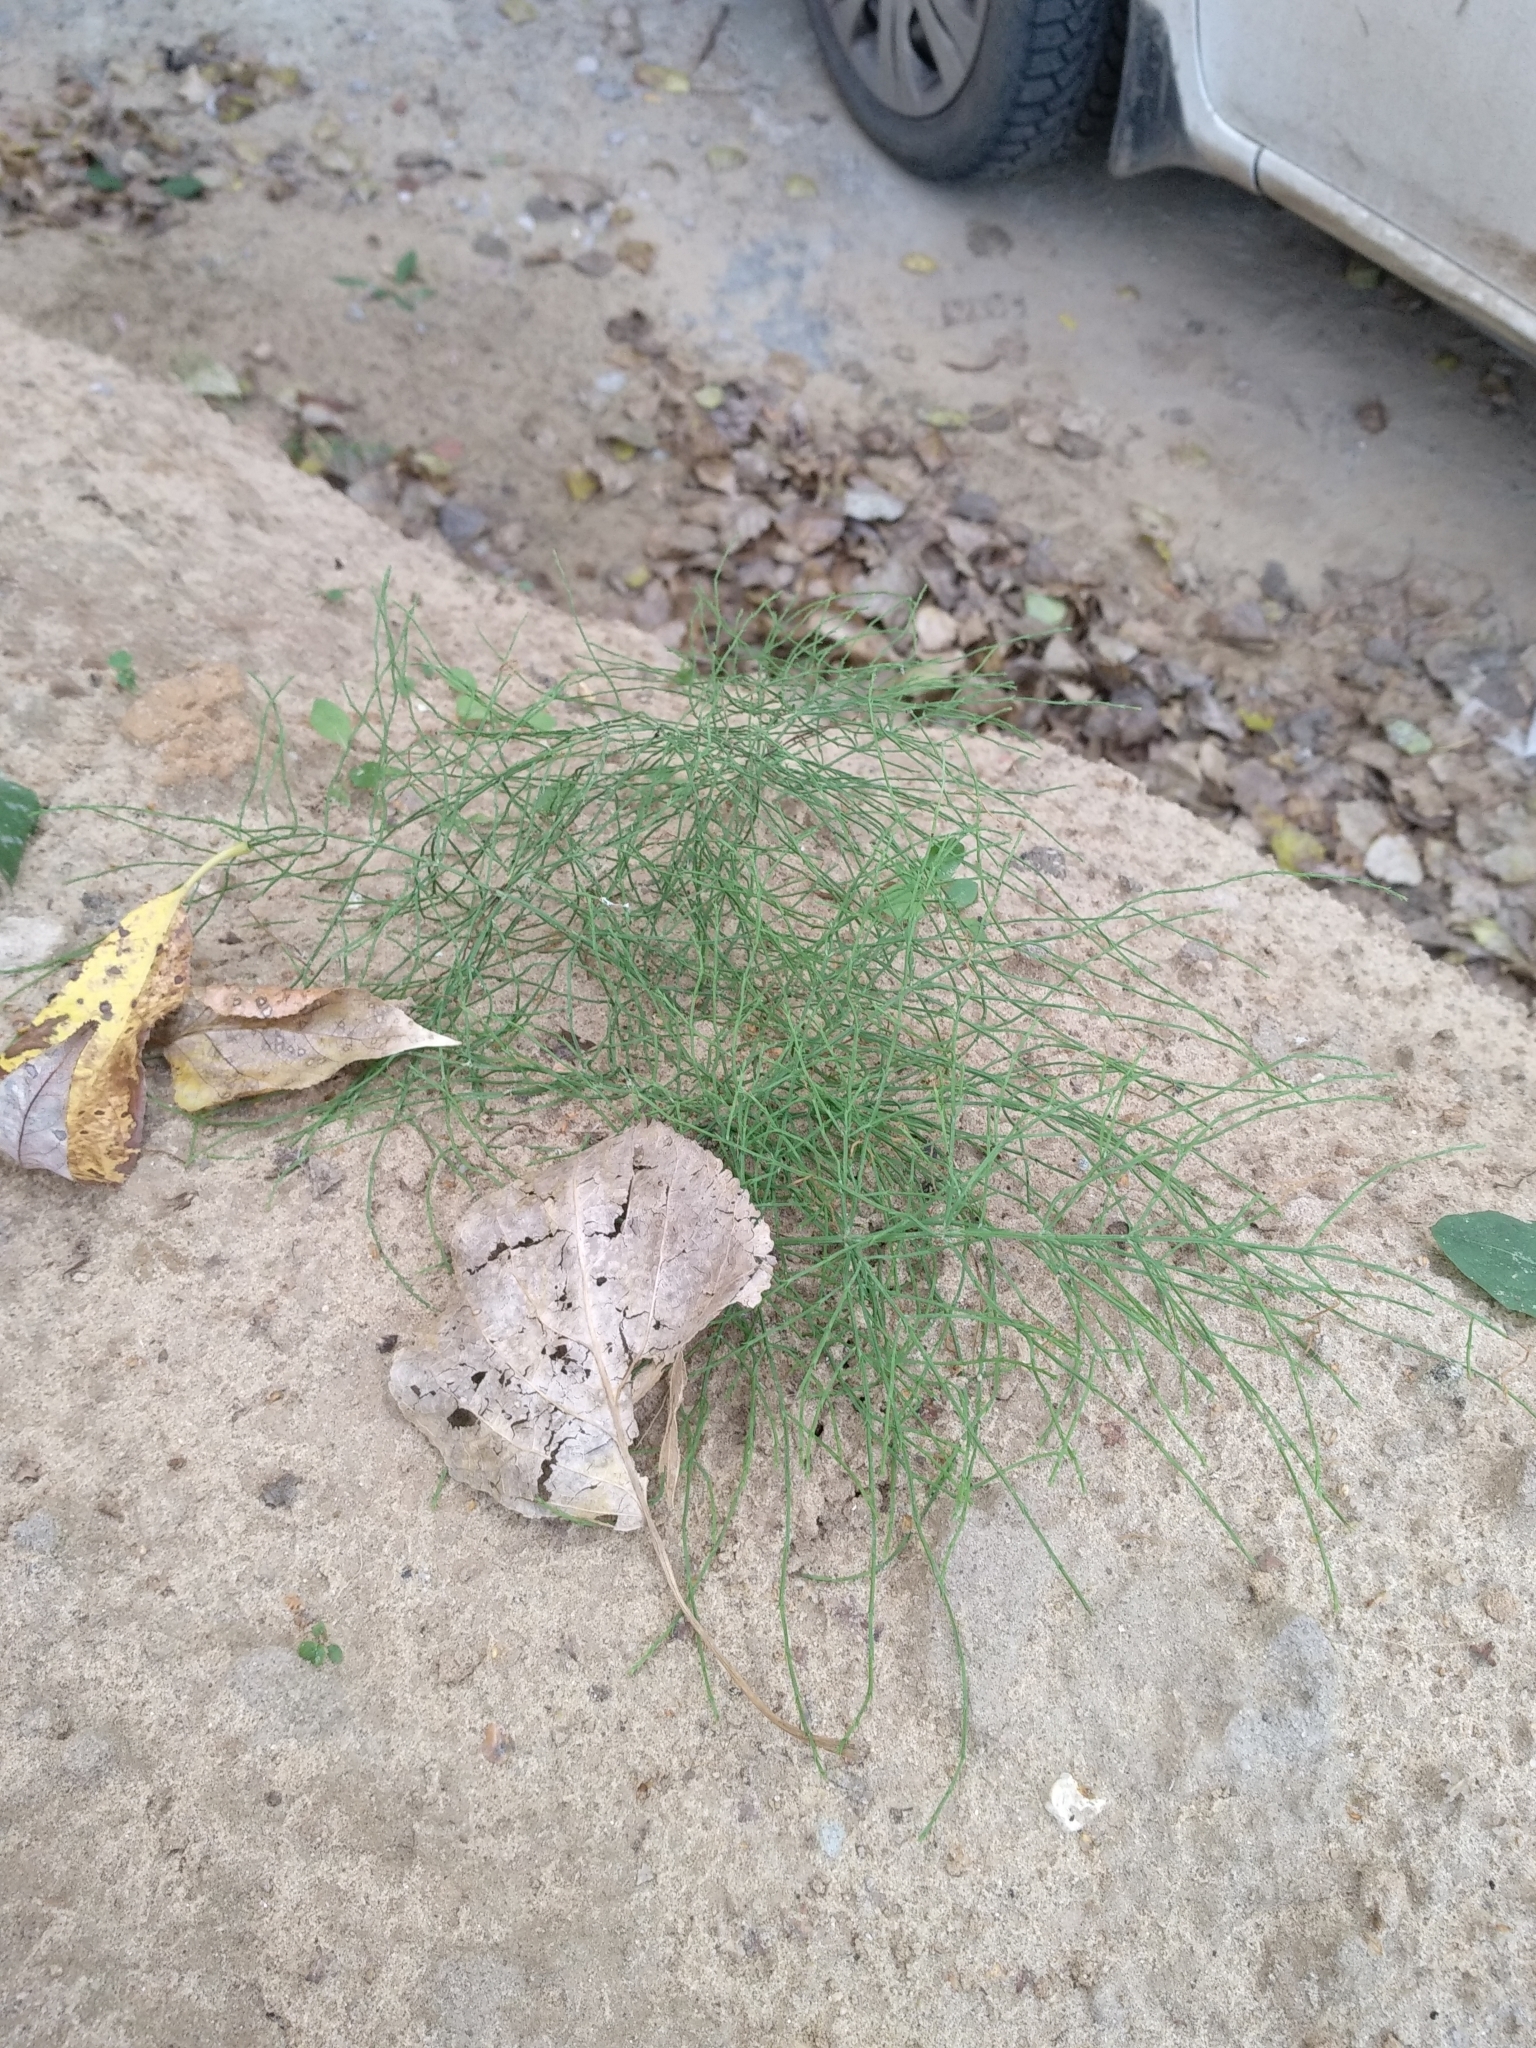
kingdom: Plantae
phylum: Tracheophyta
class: Polypodiopsida
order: Equisetales
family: Equisetaceae
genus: Equisetum
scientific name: Equisetum arvense
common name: Field horsetail
